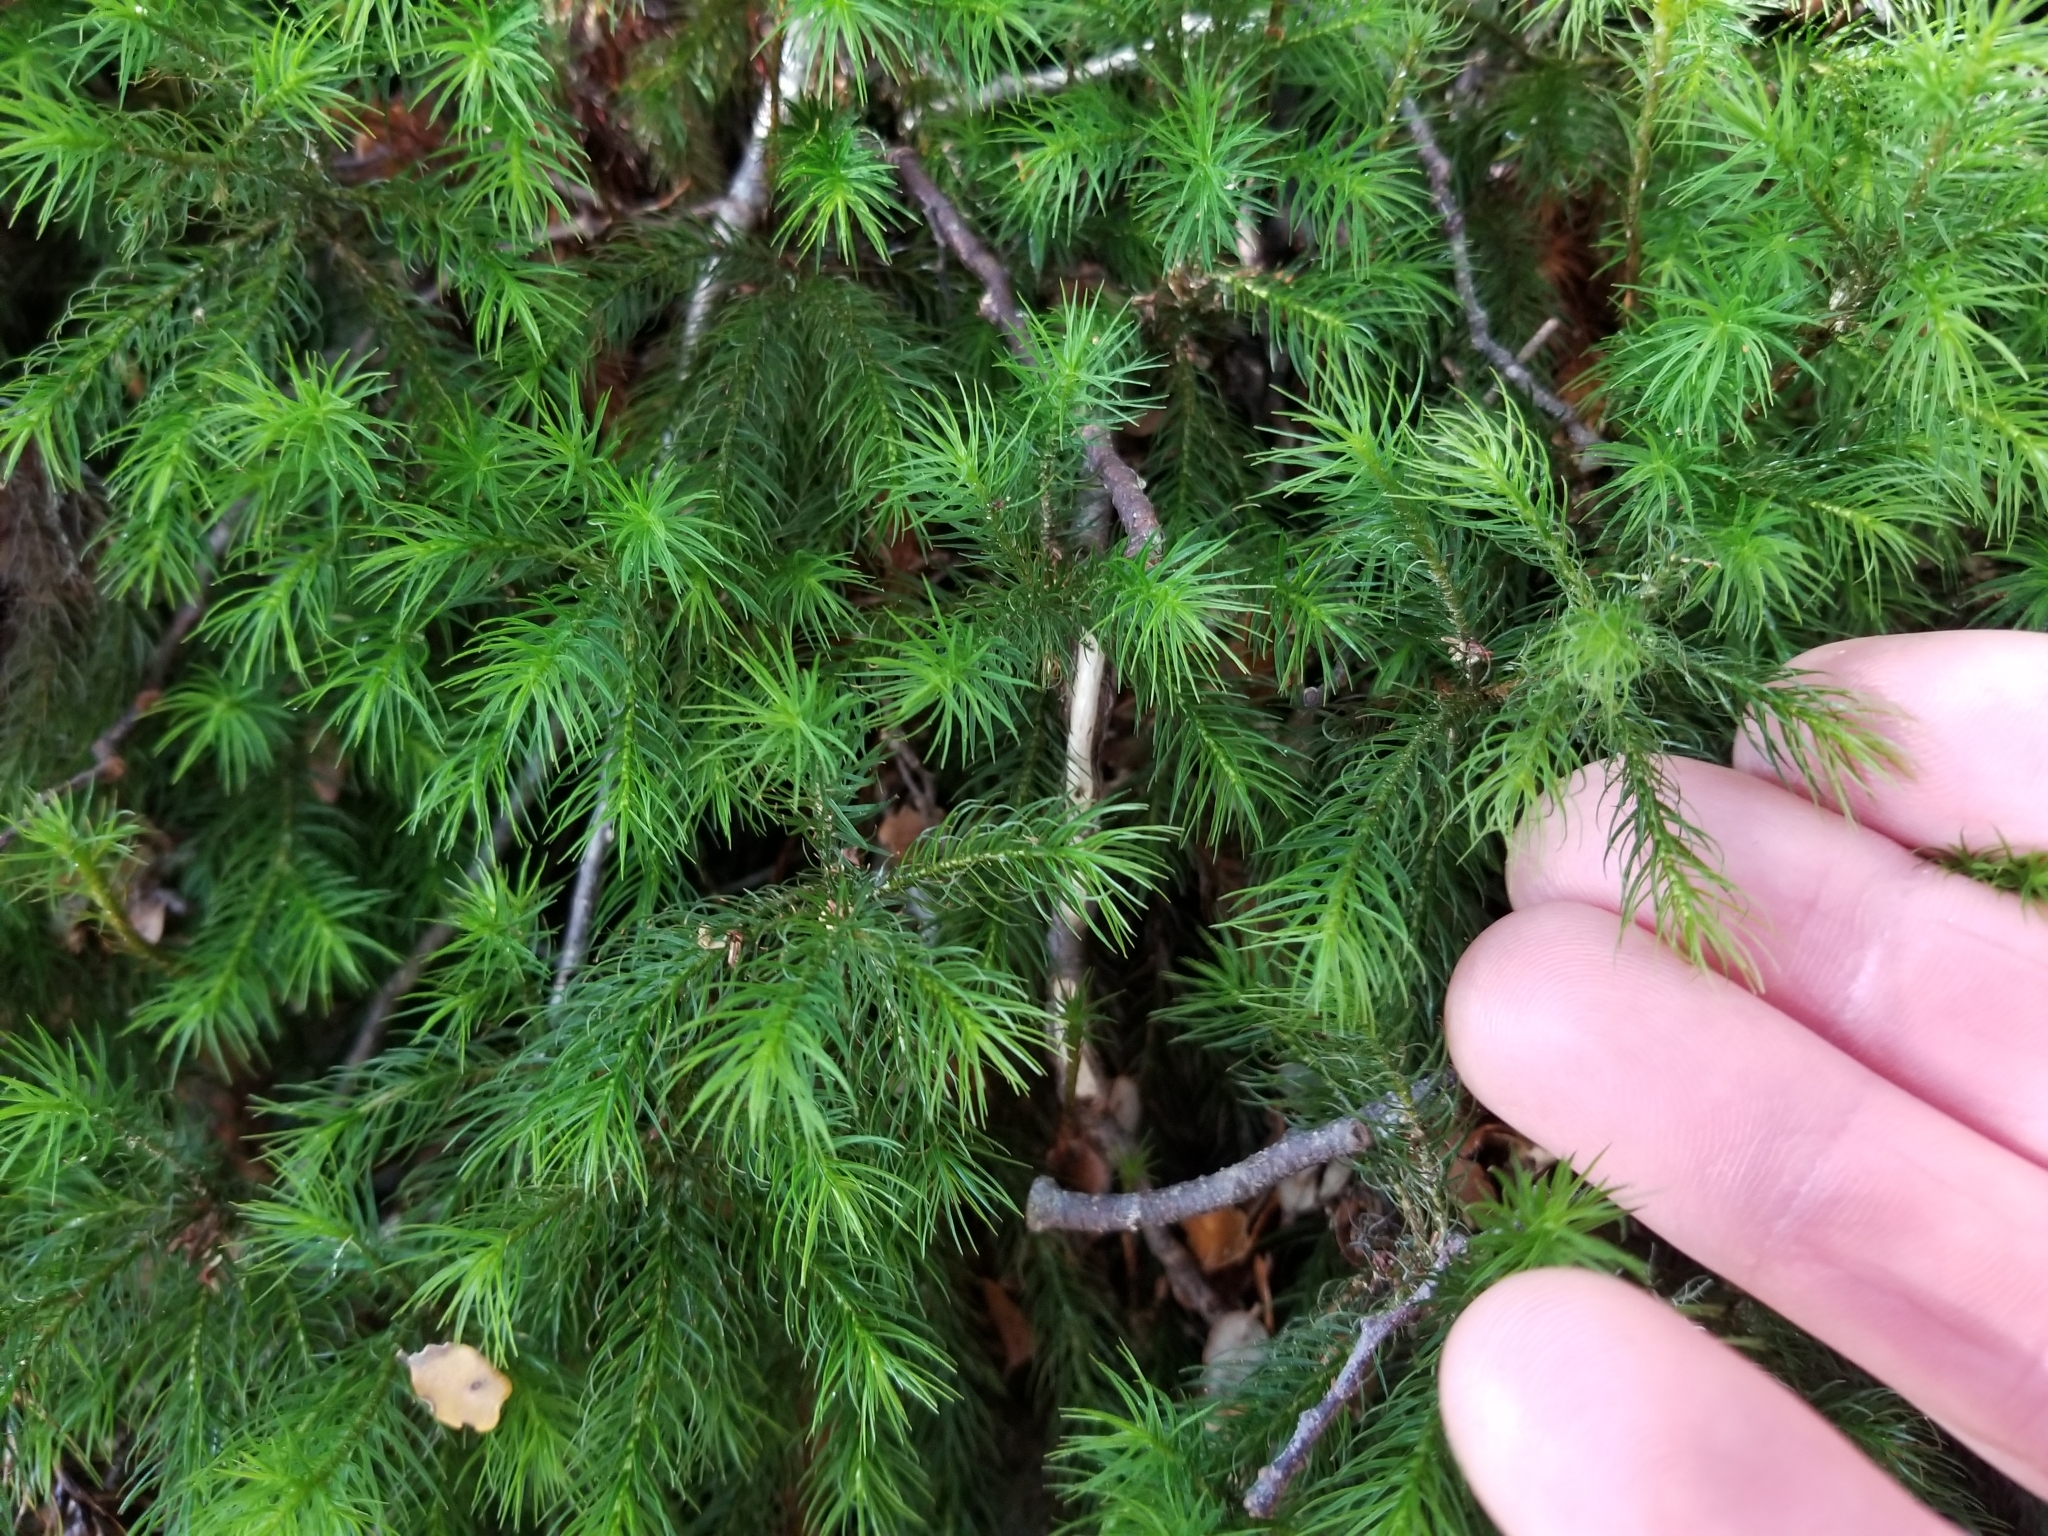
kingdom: Plantae
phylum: Bryophyta
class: Polytrichopsida
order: Polytrichales
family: Polytrichaceae
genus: Dendroligotrichum
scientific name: Dendroligotrichum tongariroense
